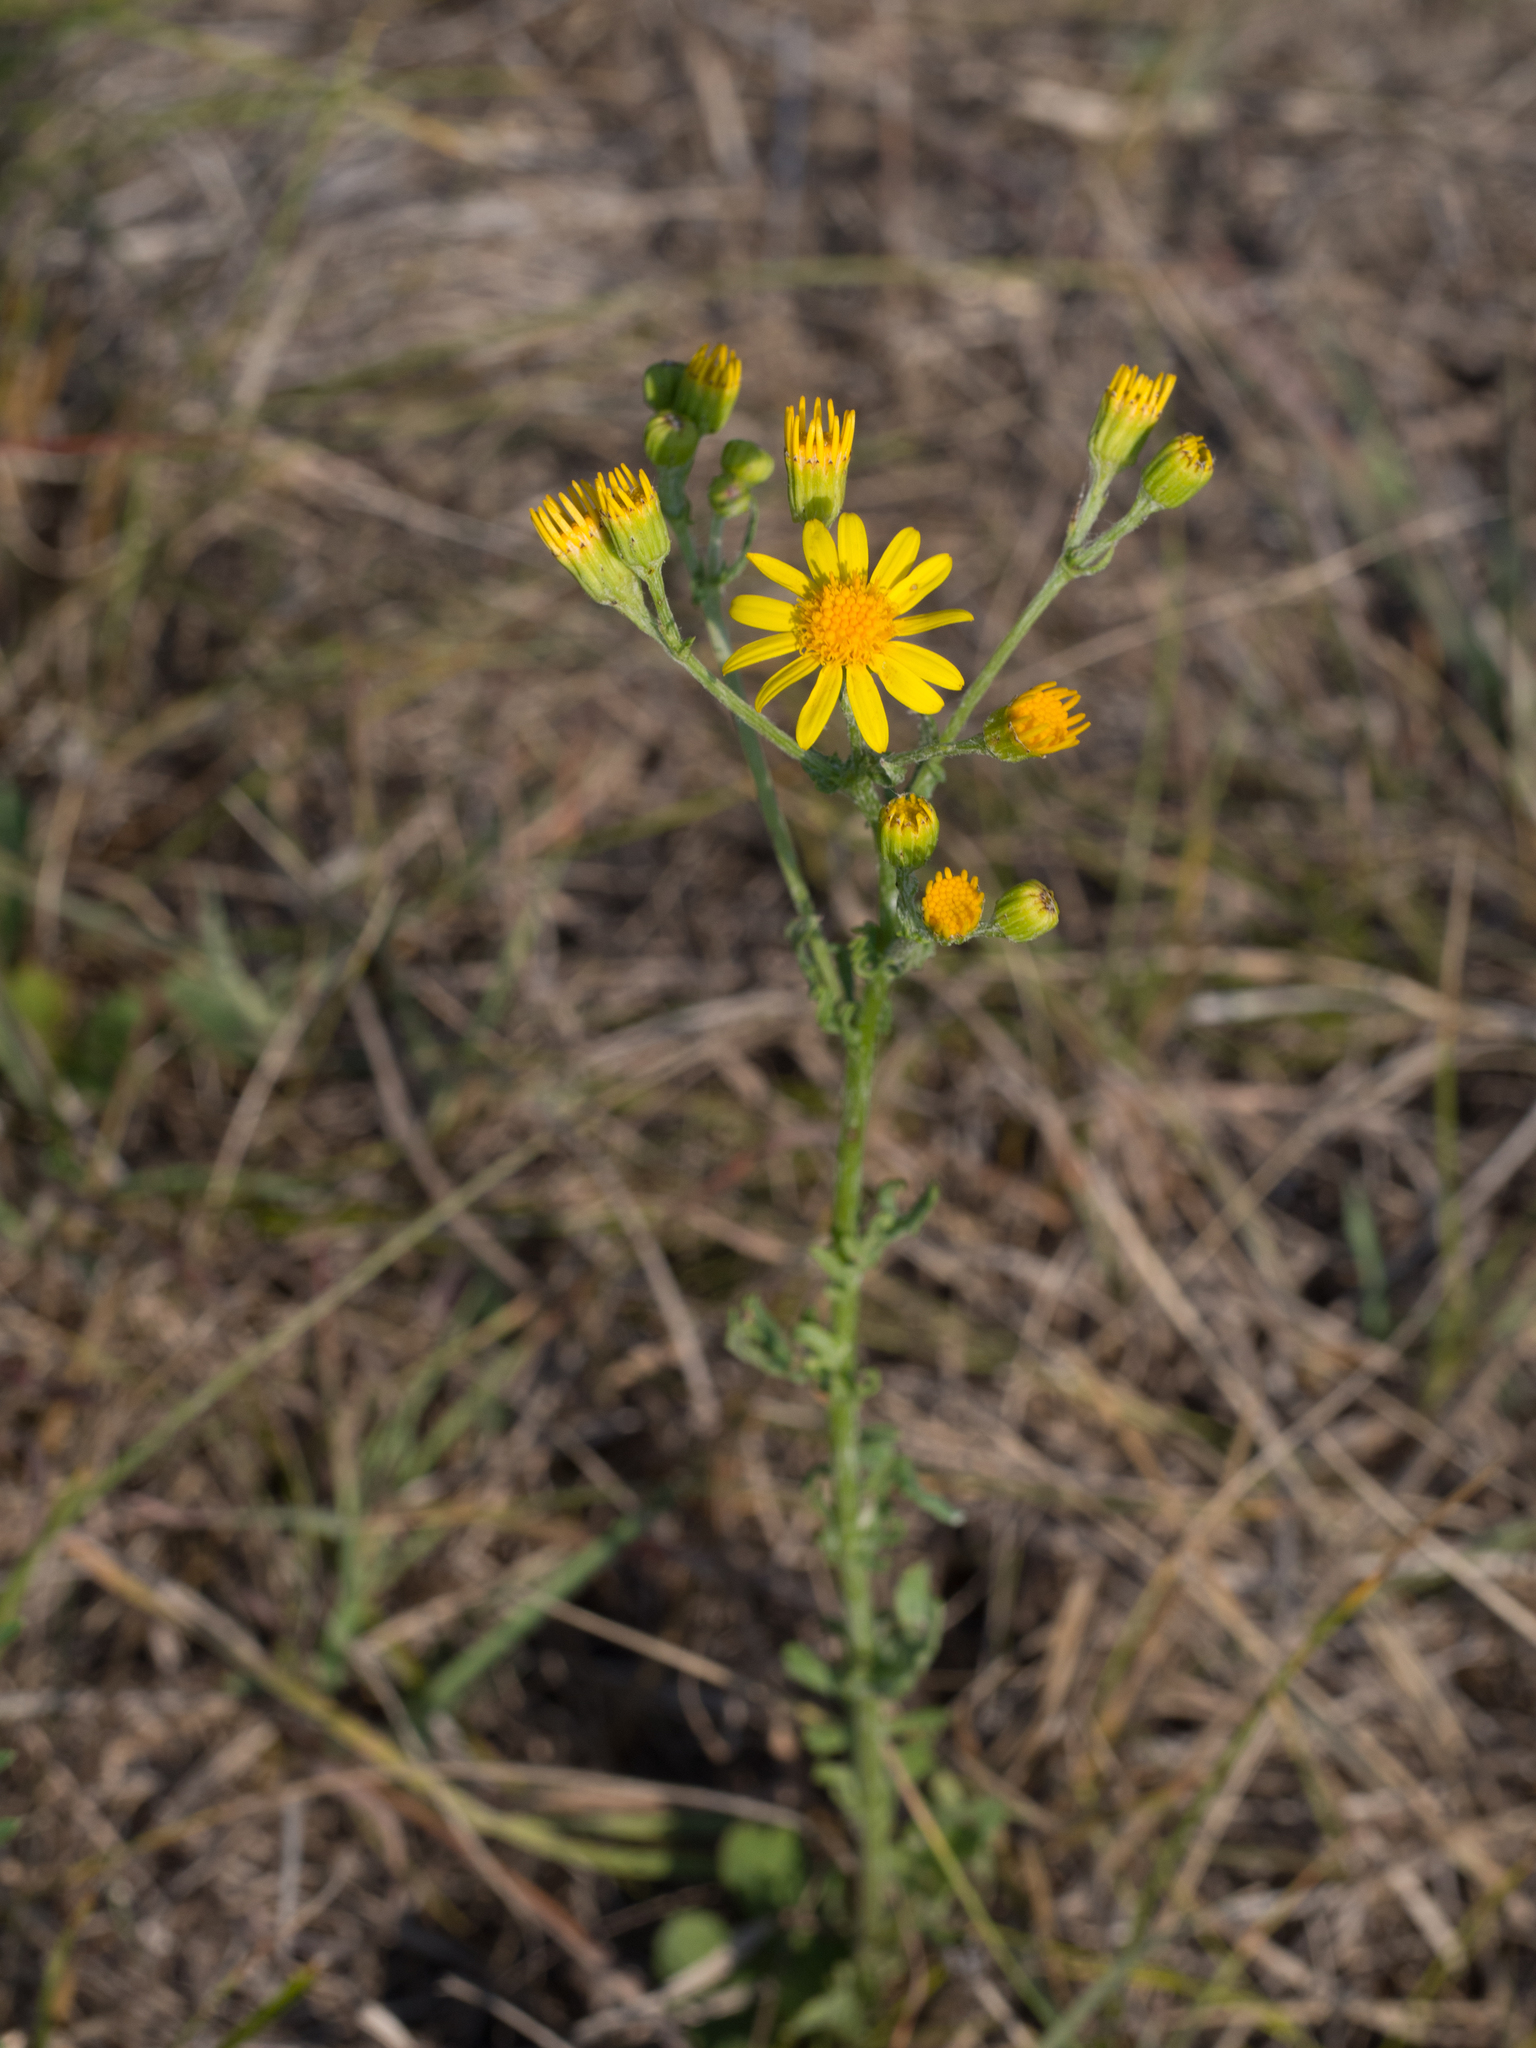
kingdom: Plantae
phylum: Tracheophyta
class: Magnoliopsida
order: Asterales
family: Asteraceae
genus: Jacobaea
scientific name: Jacobaea vulgaris
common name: Stinking willie
